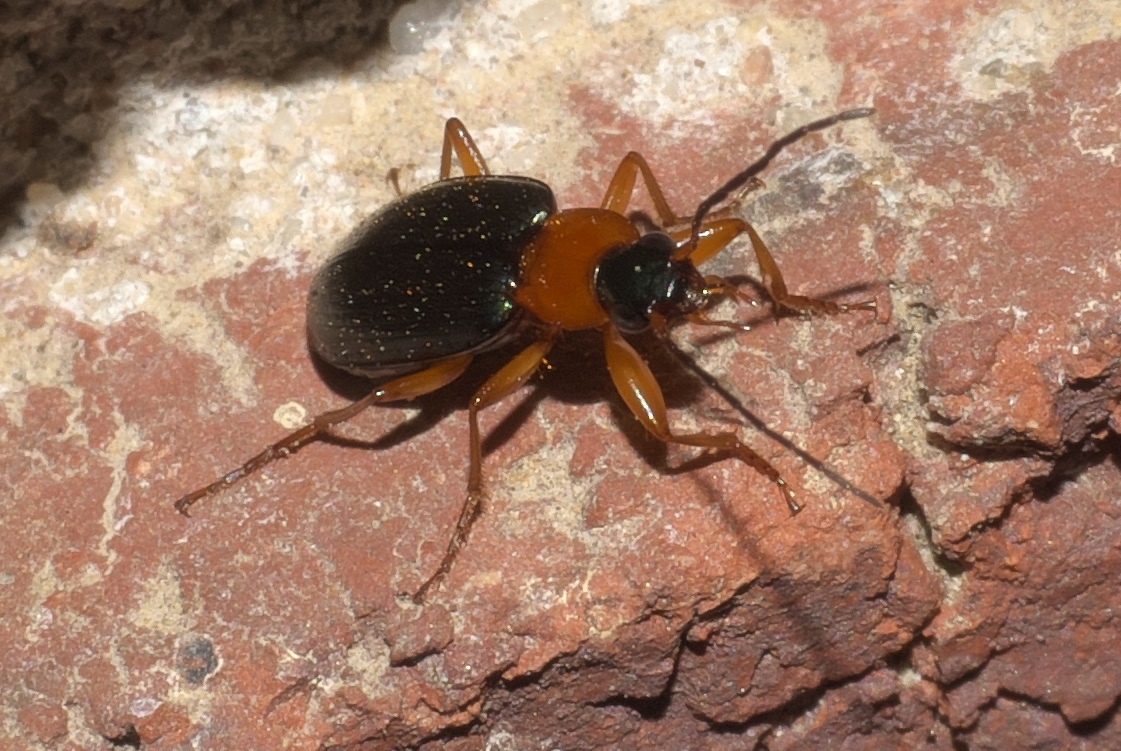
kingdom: Animalia
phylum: Arthropoda
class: Insecta
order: Coleoptera
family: Carabidae
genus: Agonum
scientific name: Agonum decorum
